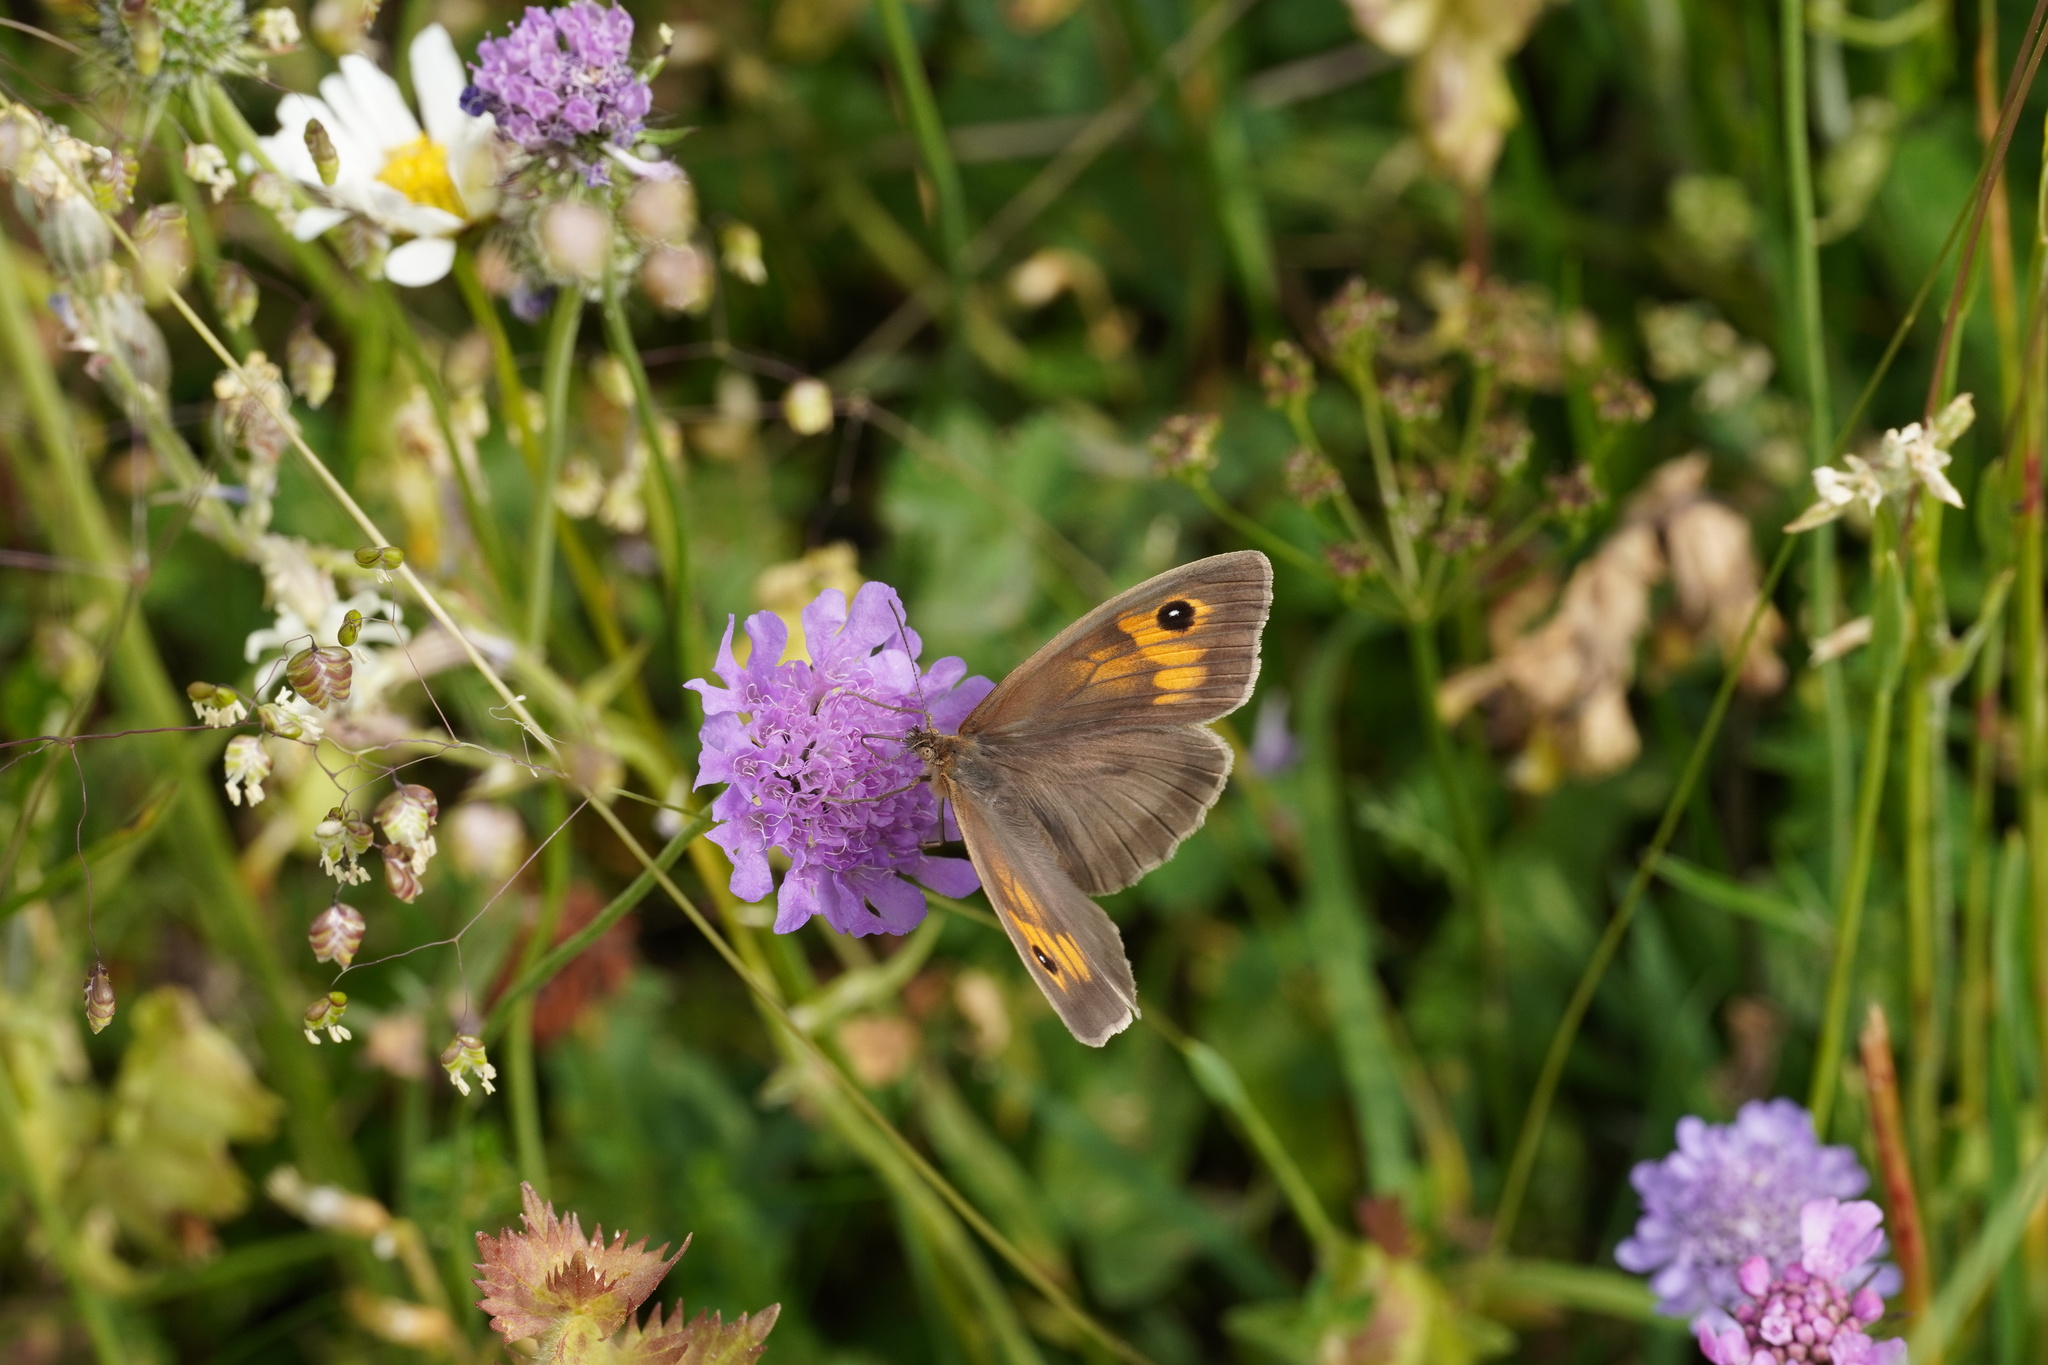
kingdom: Animalia
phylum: Arthropoda
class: Insecta
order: Lepidoptera
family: Nymphalidae
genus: Maniola
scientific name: Maniola jurtina
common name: Meadow brown
